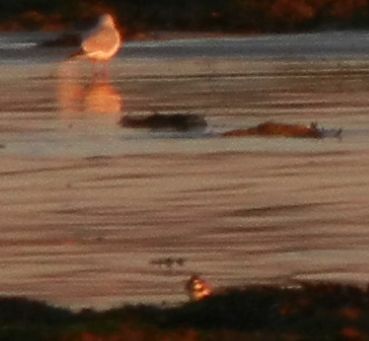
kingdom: Animalia
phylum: Chordata
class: Aves
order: Charadriiformes
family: Charadriidae
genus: Charadrius
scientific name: Charadrius hiaticula
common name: Common ringed plover
